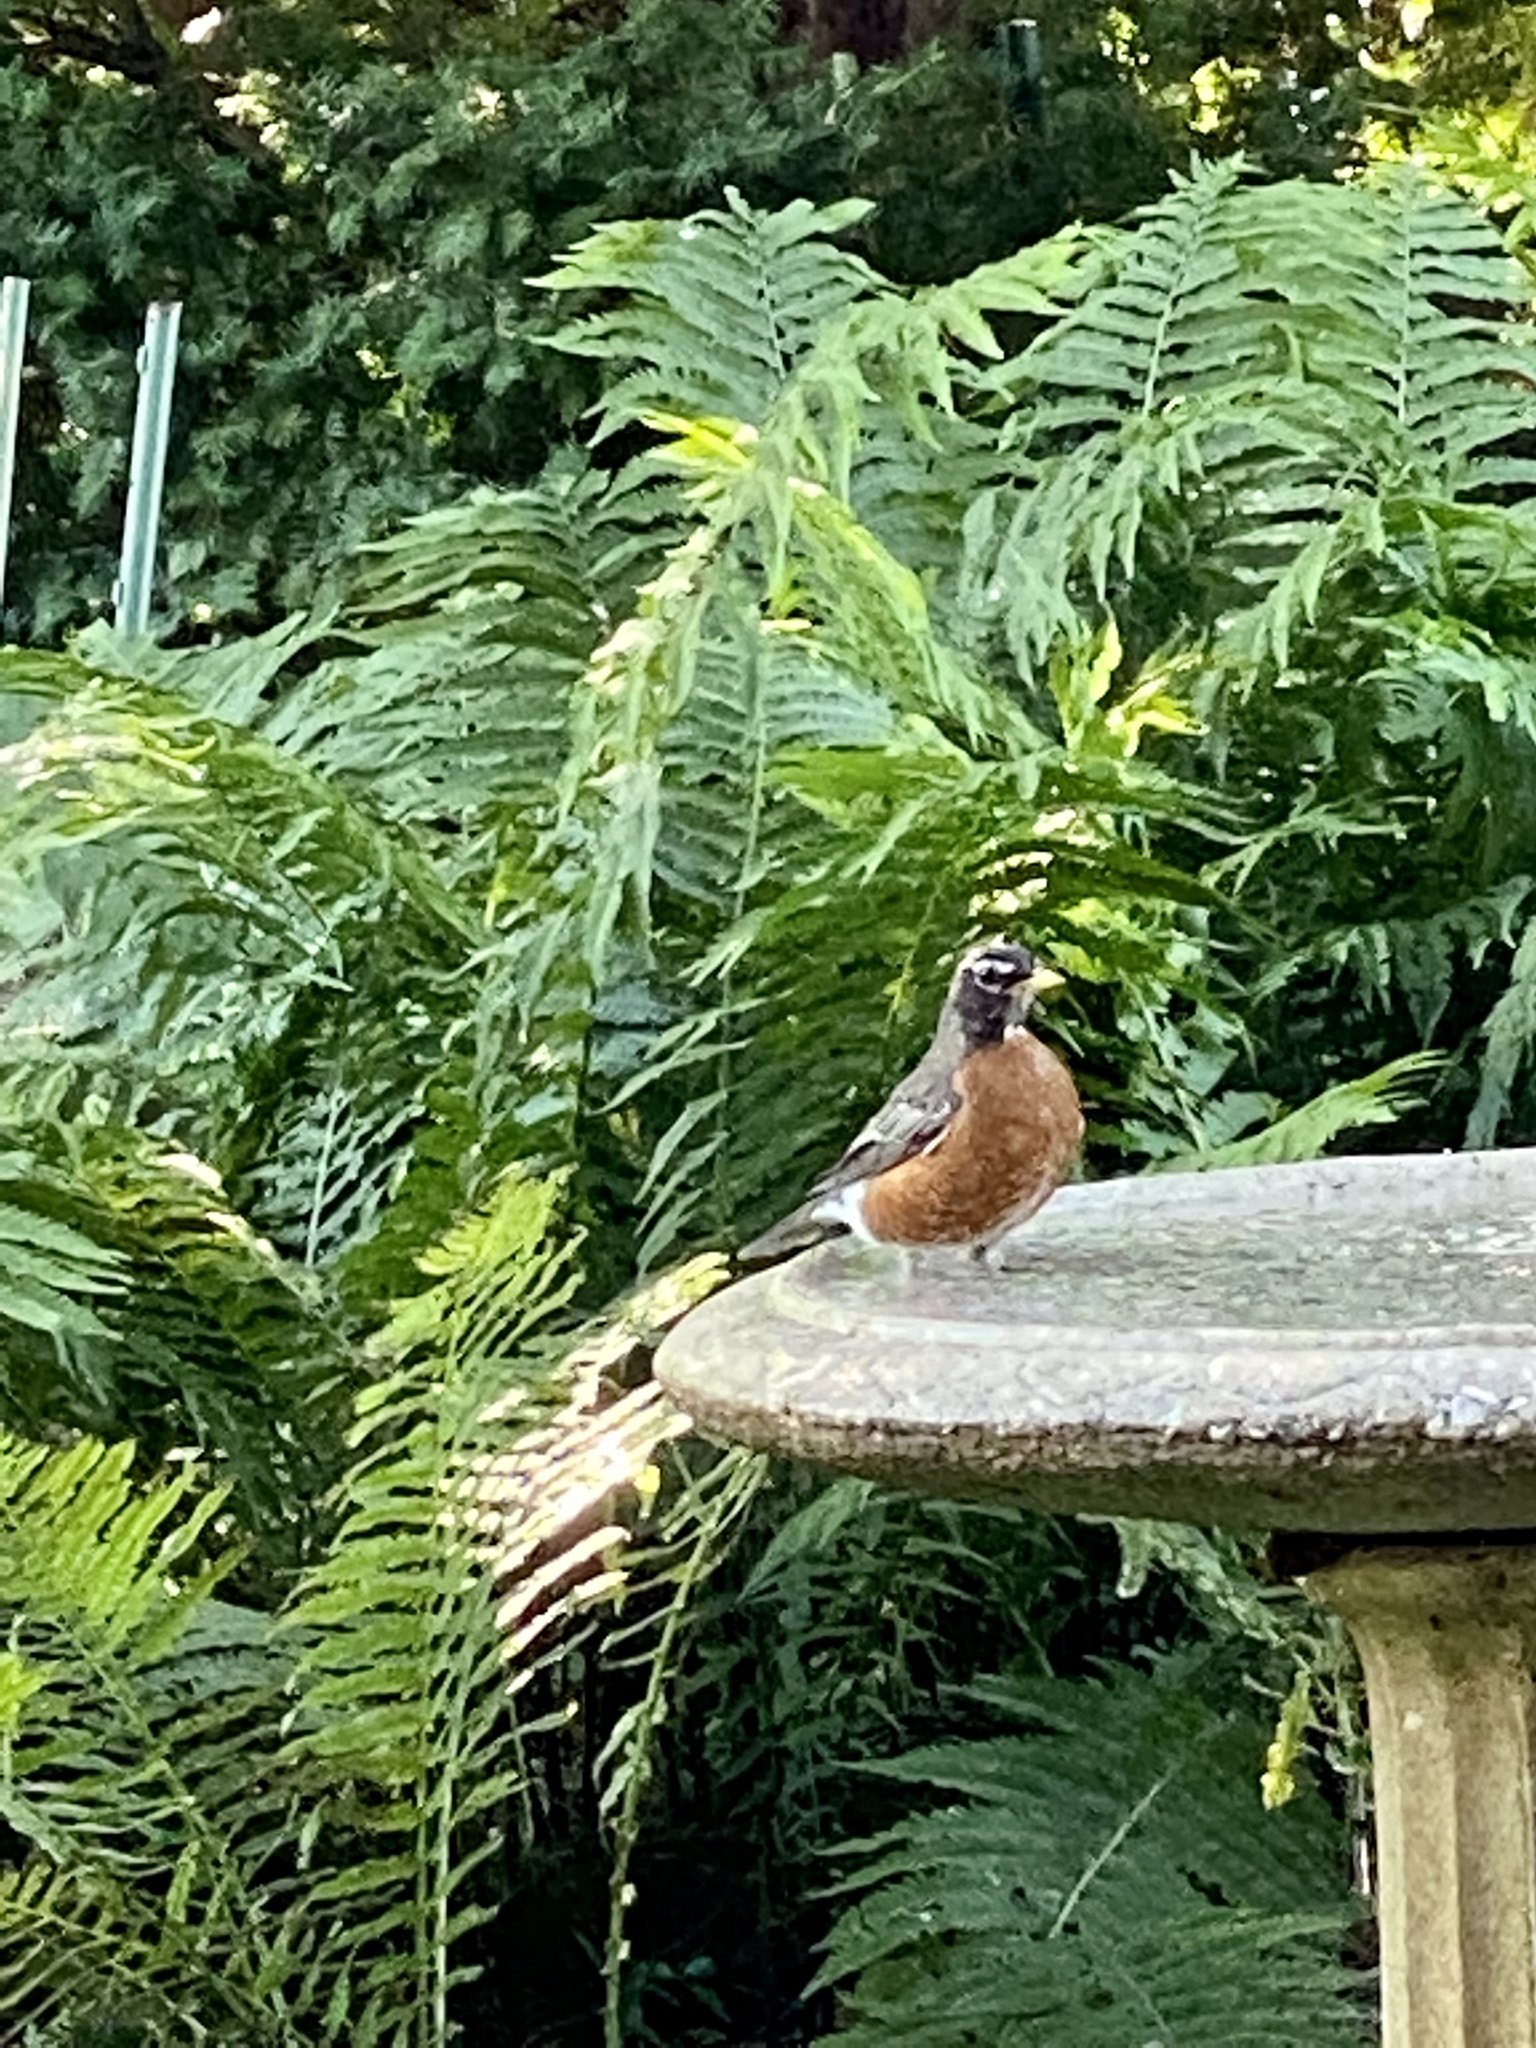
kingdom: Animalia
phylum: Chordata
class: Aves
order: Passeriformes
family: Turdidae
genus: Turdus
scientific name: Turdus migratorius
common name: American robin
